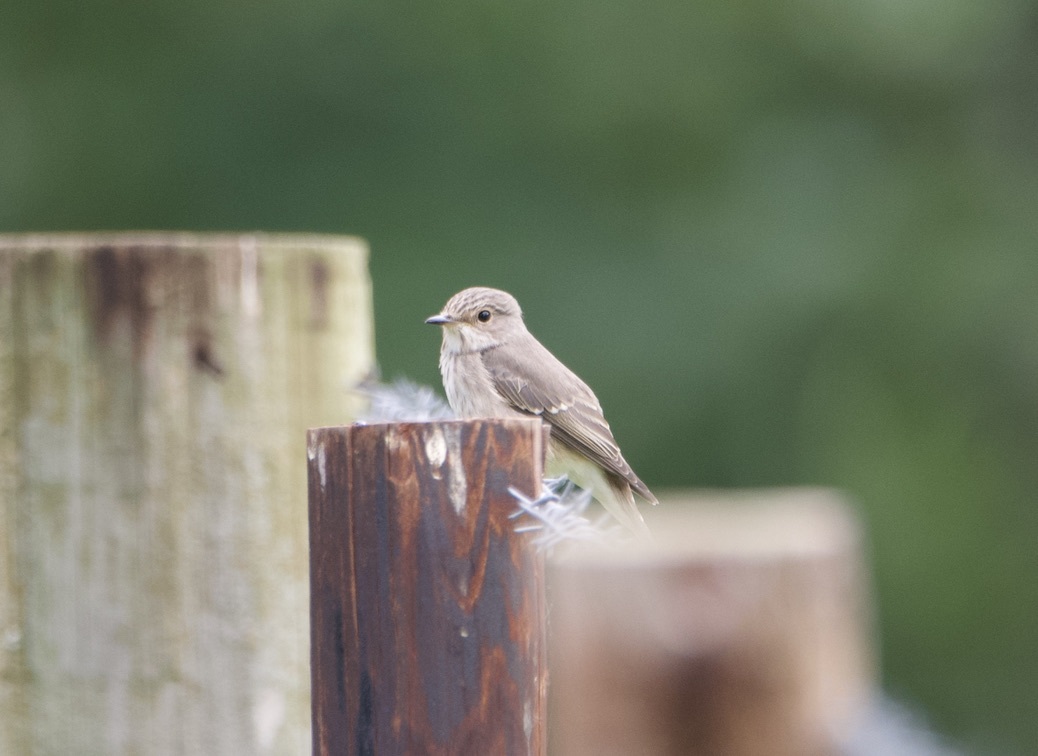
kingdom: Animalia
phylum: Chordata
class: Aves
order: Passeriformes
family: Muscicapidae
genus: Muscicapa
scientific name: Muscicapa striata
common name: Spotted flycatcher
